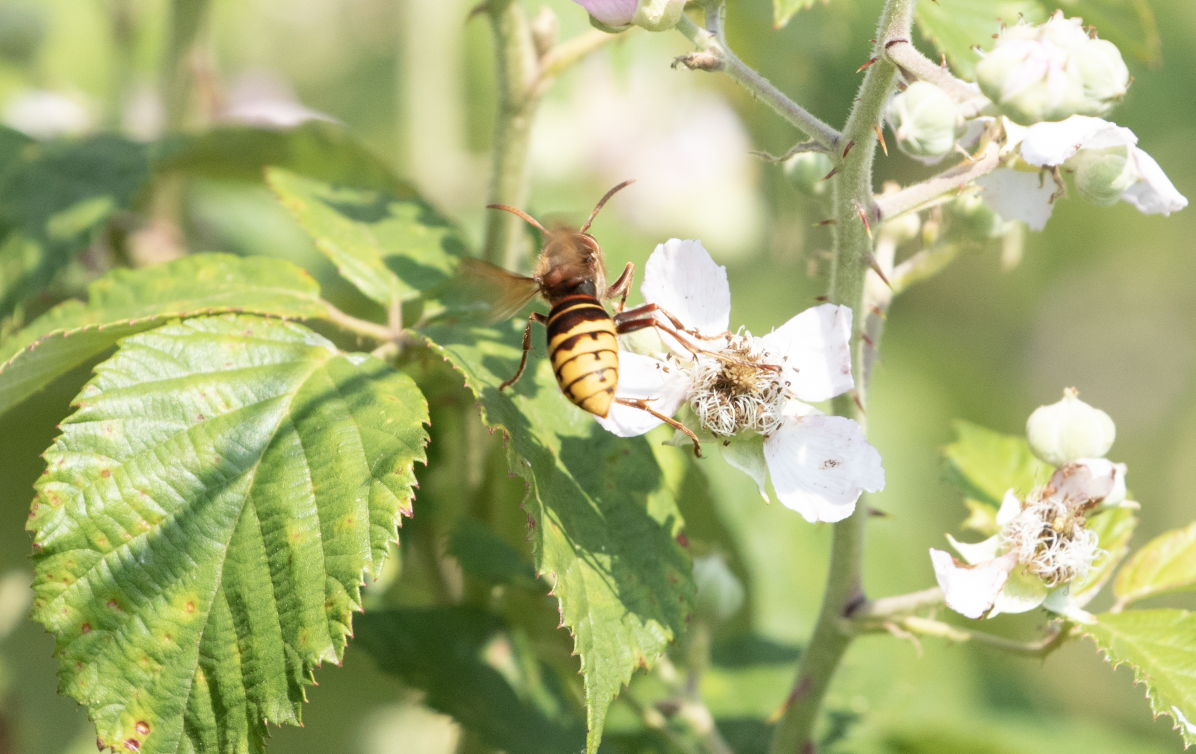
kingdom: Animalia
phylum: Arthropoda
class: Insecta
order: Hymenoptera
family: Vespidae
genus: Vespa
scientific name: Vespa crabro
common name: Hornet
